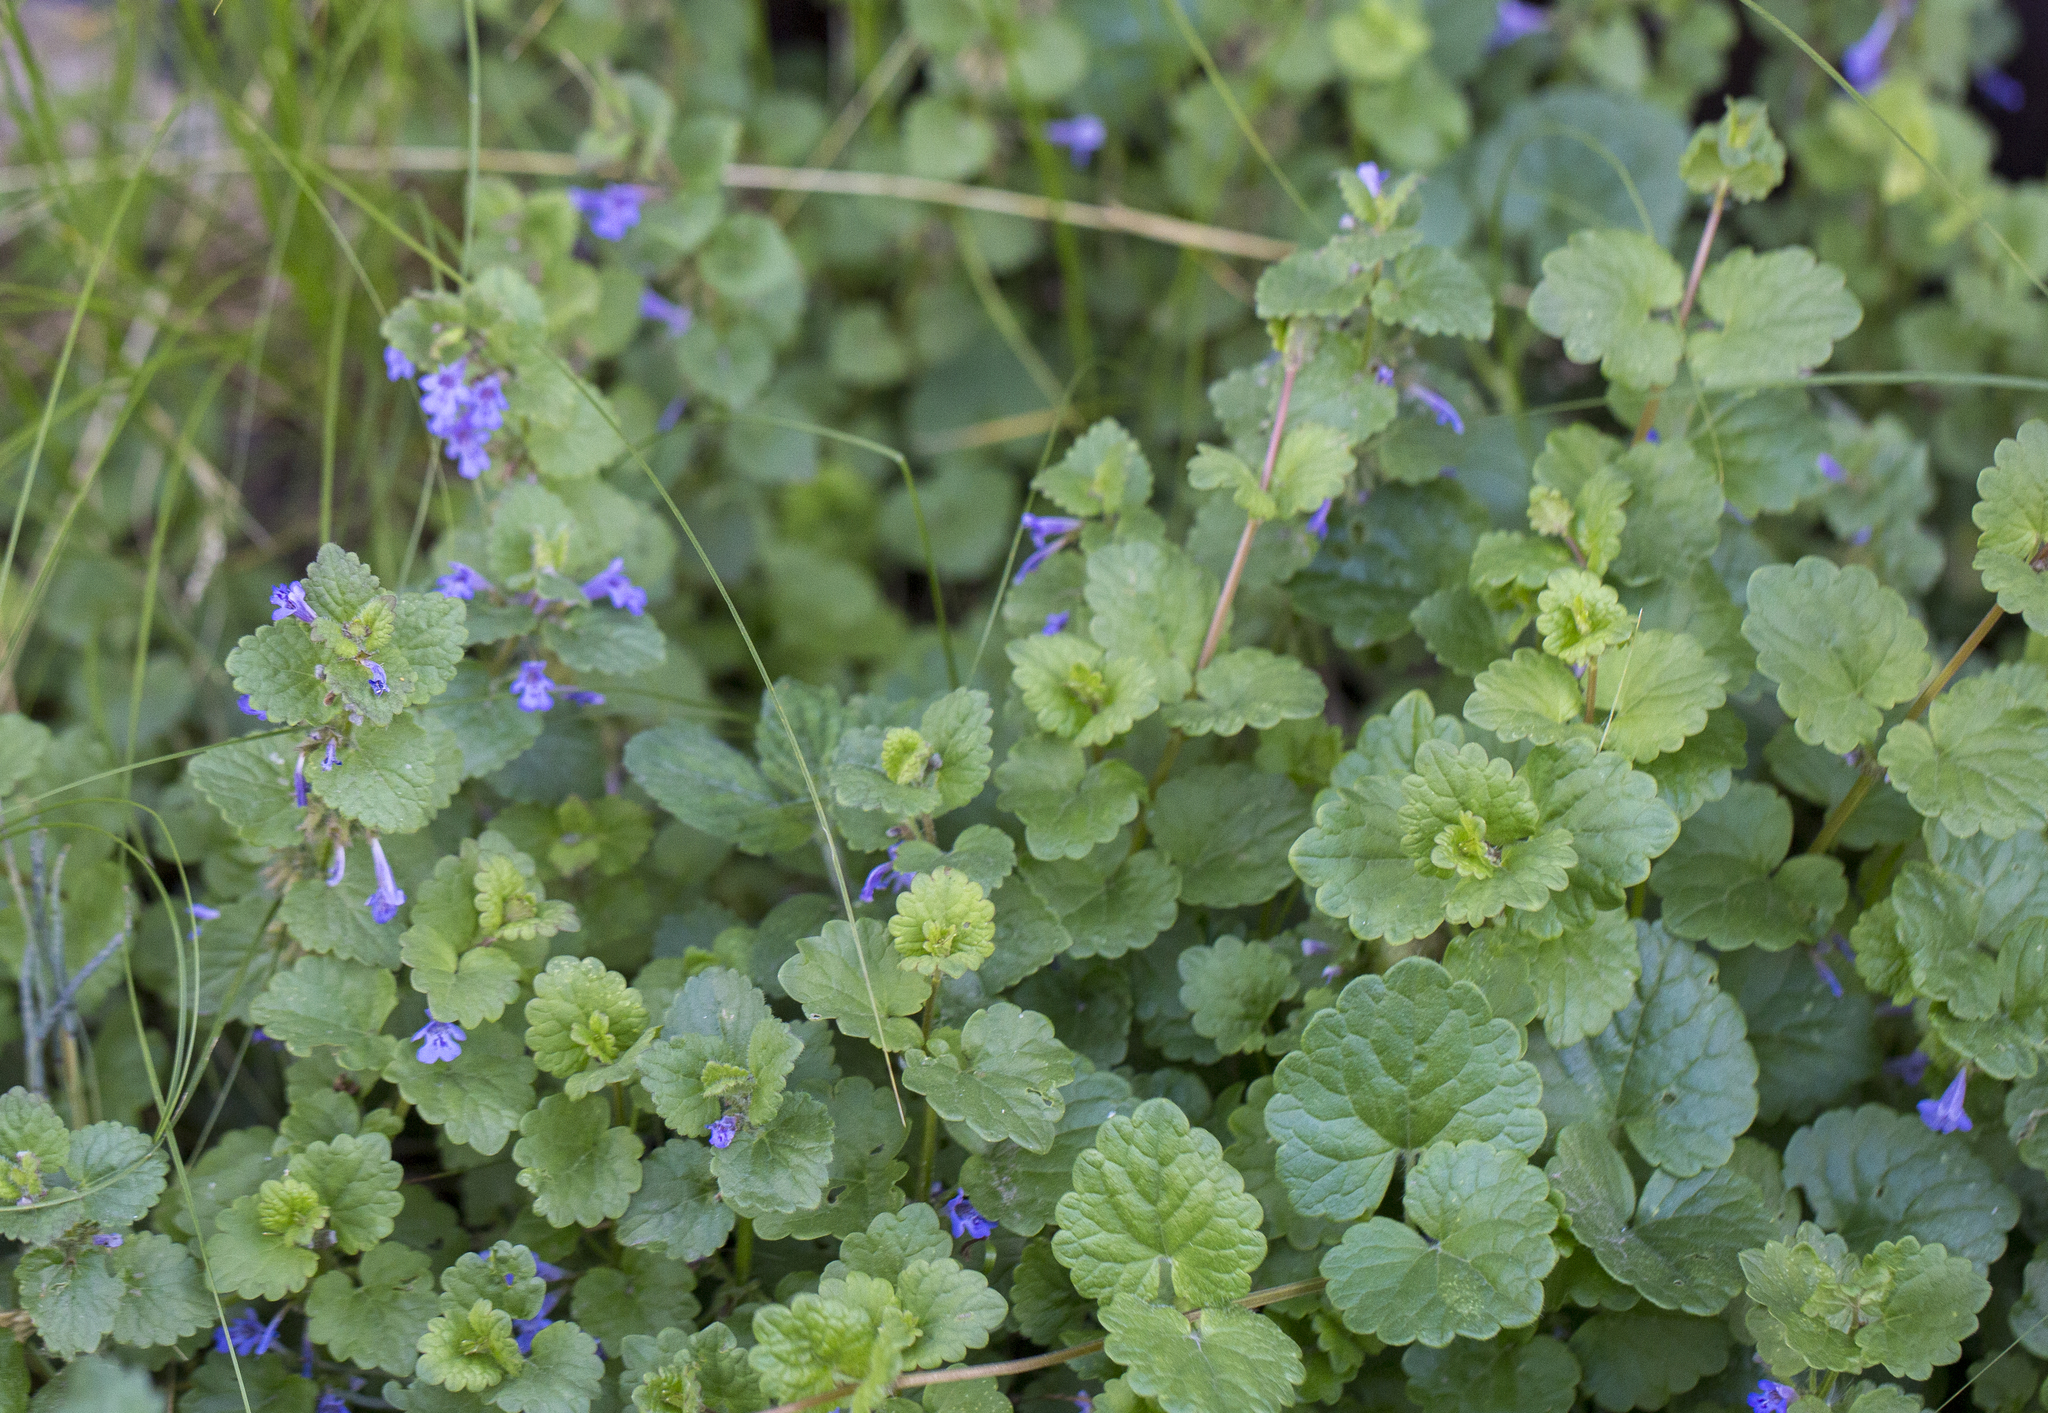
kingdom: Plantae
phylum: Tracheophyta
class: Magnoliopsida
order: Lamiales
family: Lamiaceae
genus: Glechoma
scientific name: Glechoma hederacea
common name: Ground ivy
